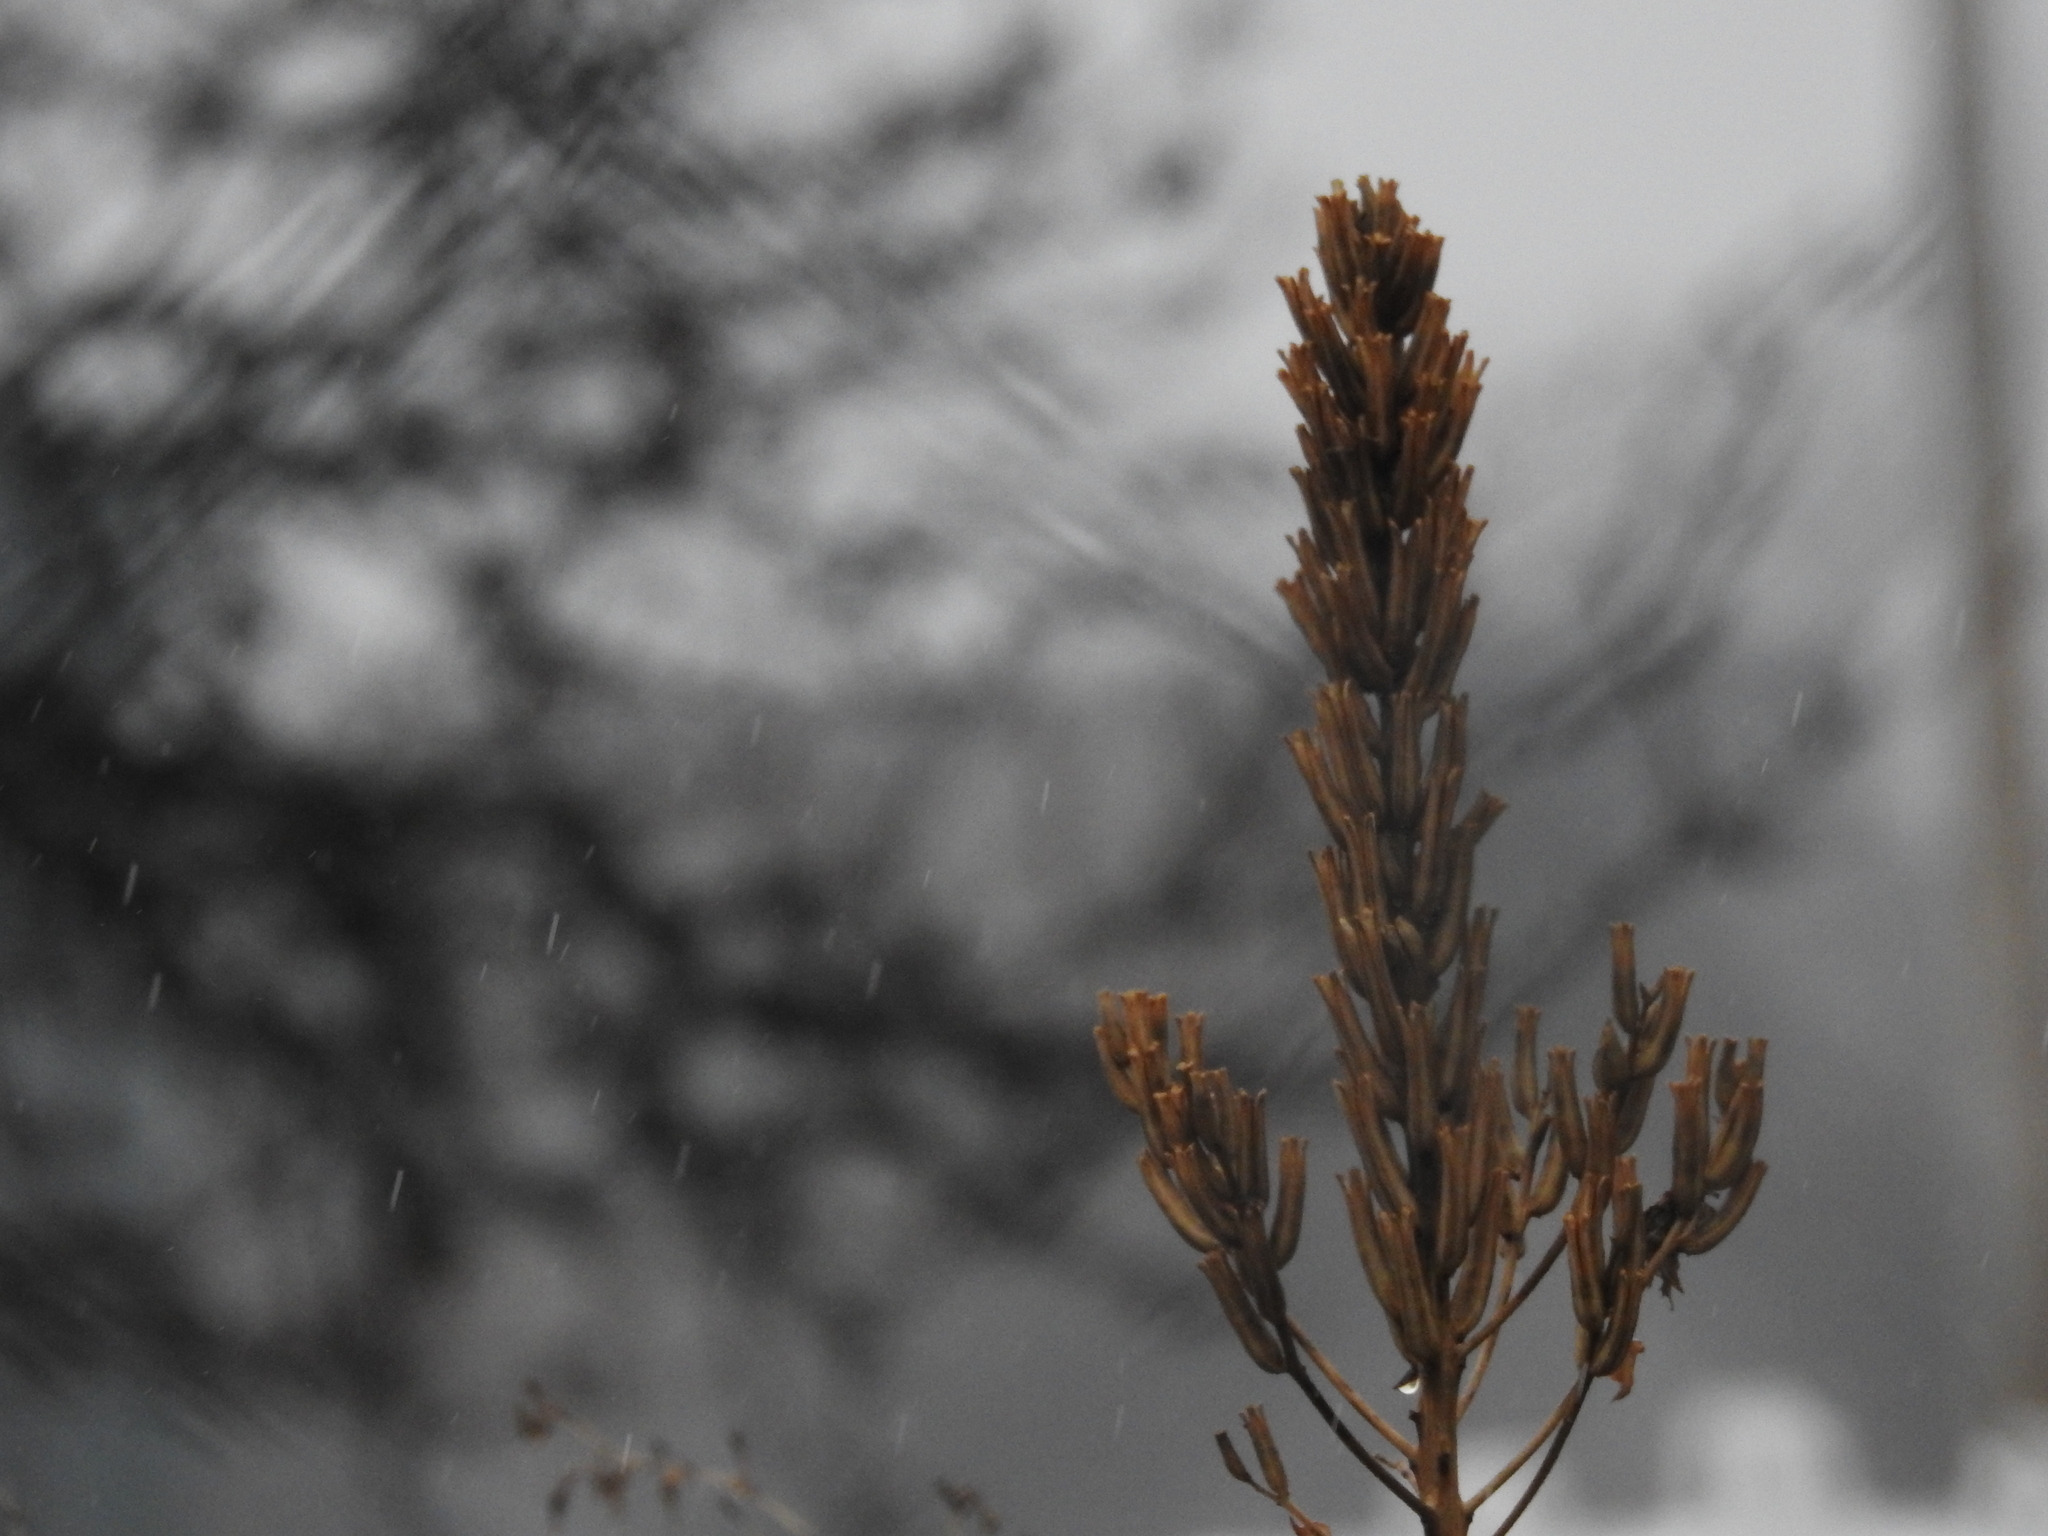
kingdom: Plantae
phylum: Tracheophyta
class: Magnoliopsida
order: Myrtales
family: Onagraceae
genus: Oenothera
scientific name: Oenothera biennis
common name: Common evening-primrose
